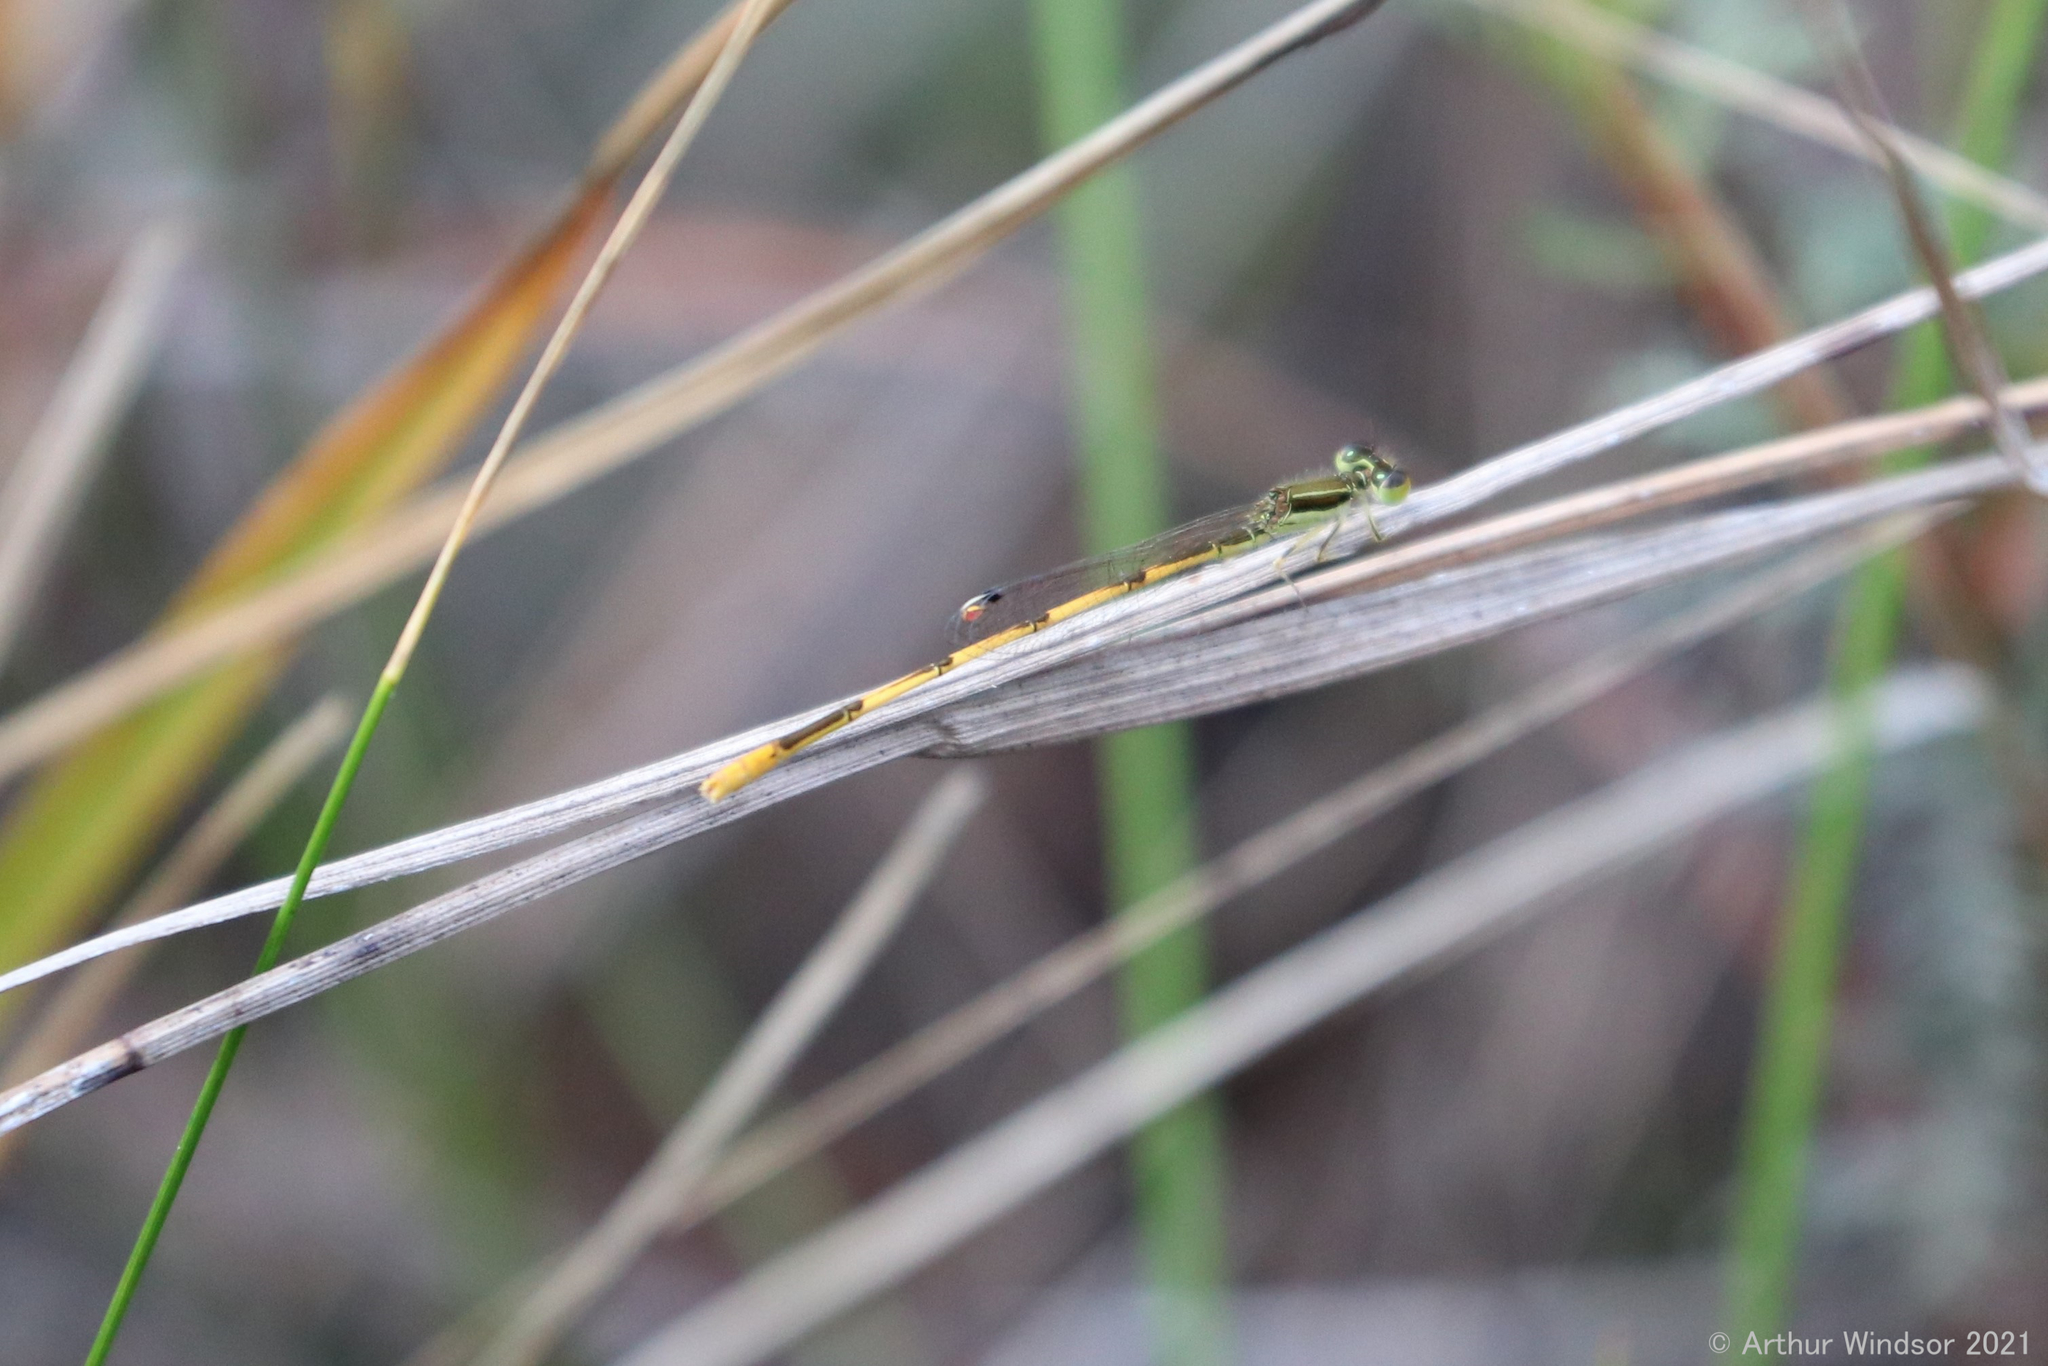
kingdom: Animalia
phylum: Arthropoda
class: Insecta
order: Odonata
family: Coenagrionidae
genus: Ischnura
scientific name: Ischnura hastata
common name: Citrine forktail
